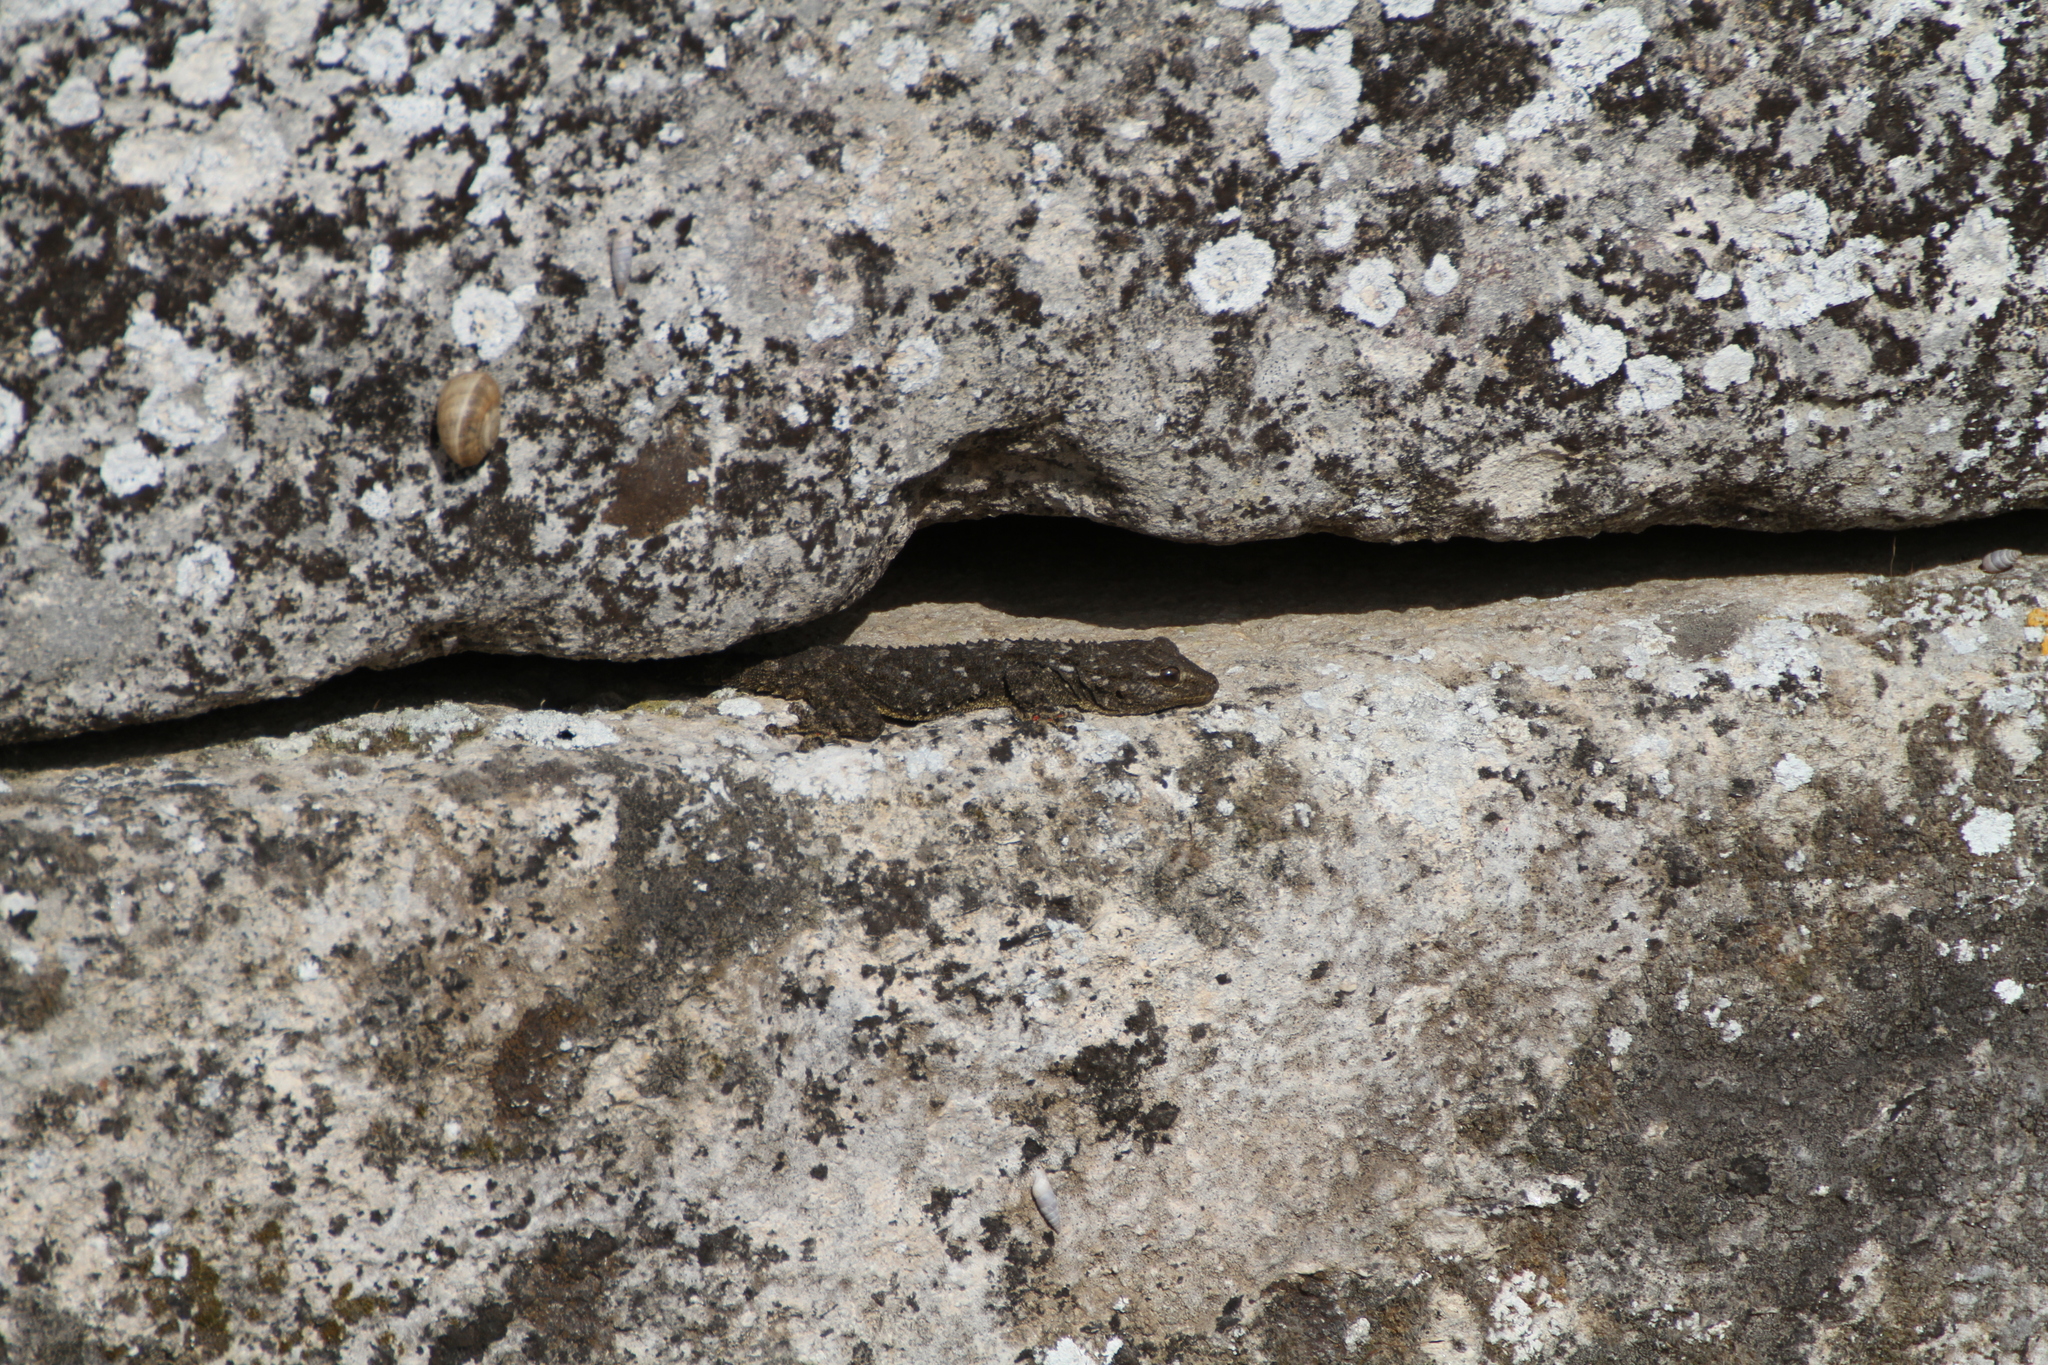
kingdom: Animalia
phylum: Chordata
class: Squamata
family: Phyllodactylidae
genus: Tarentola
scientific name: Tarentola mauritanica
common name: Moorish gecko
